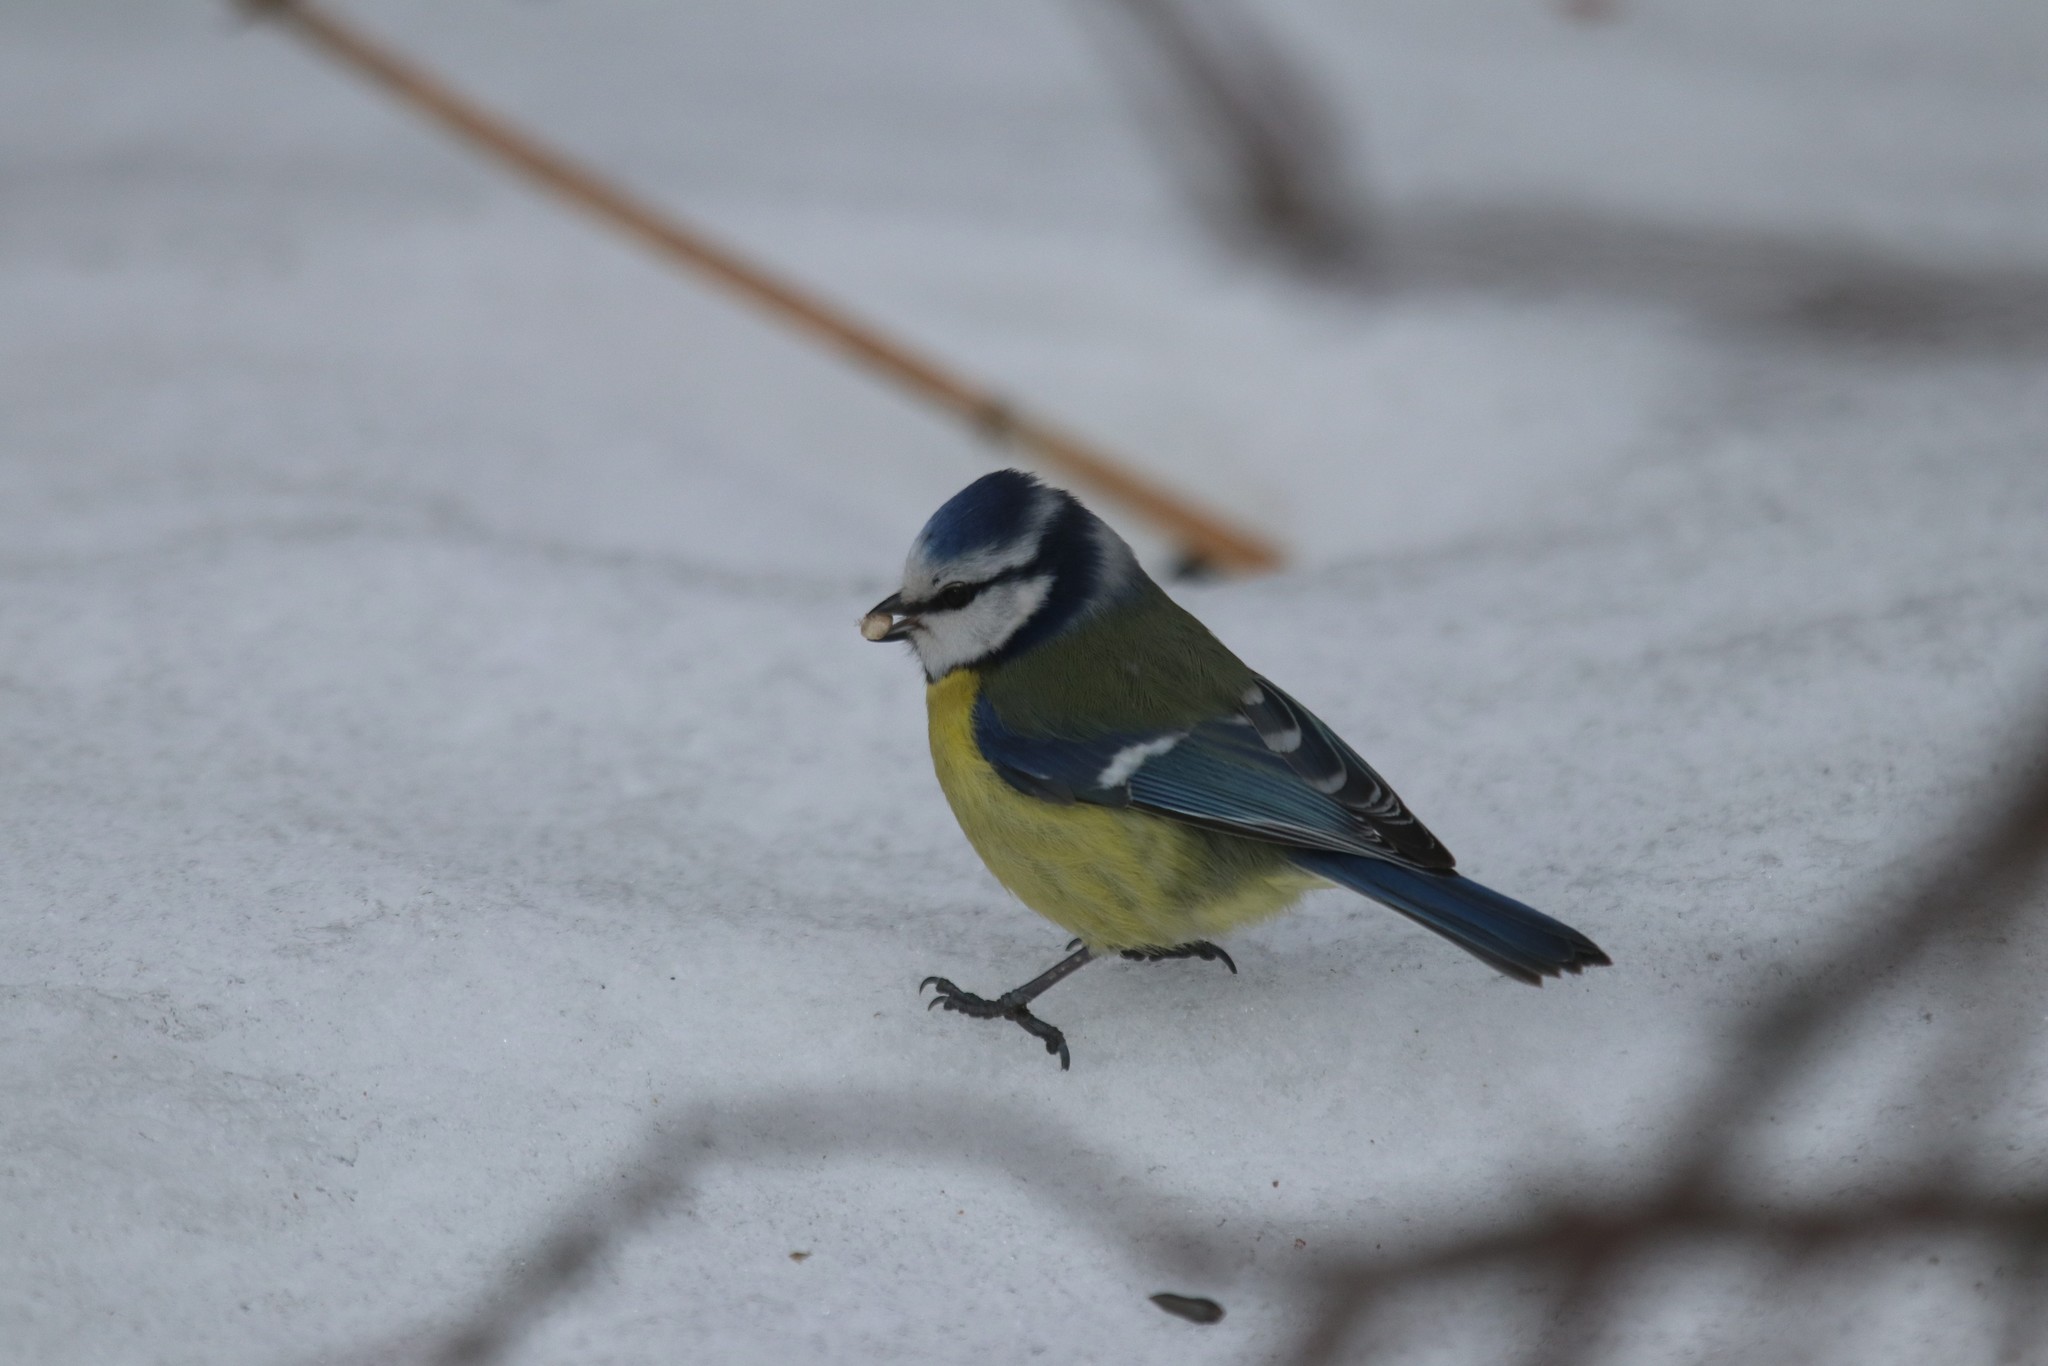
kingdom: Animalia
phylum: Chordata
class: Aves
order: Passeriformes
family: Paridae
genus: Cyanistes
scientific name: Cyanistes caeruleus
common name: Eurasian blue tit
